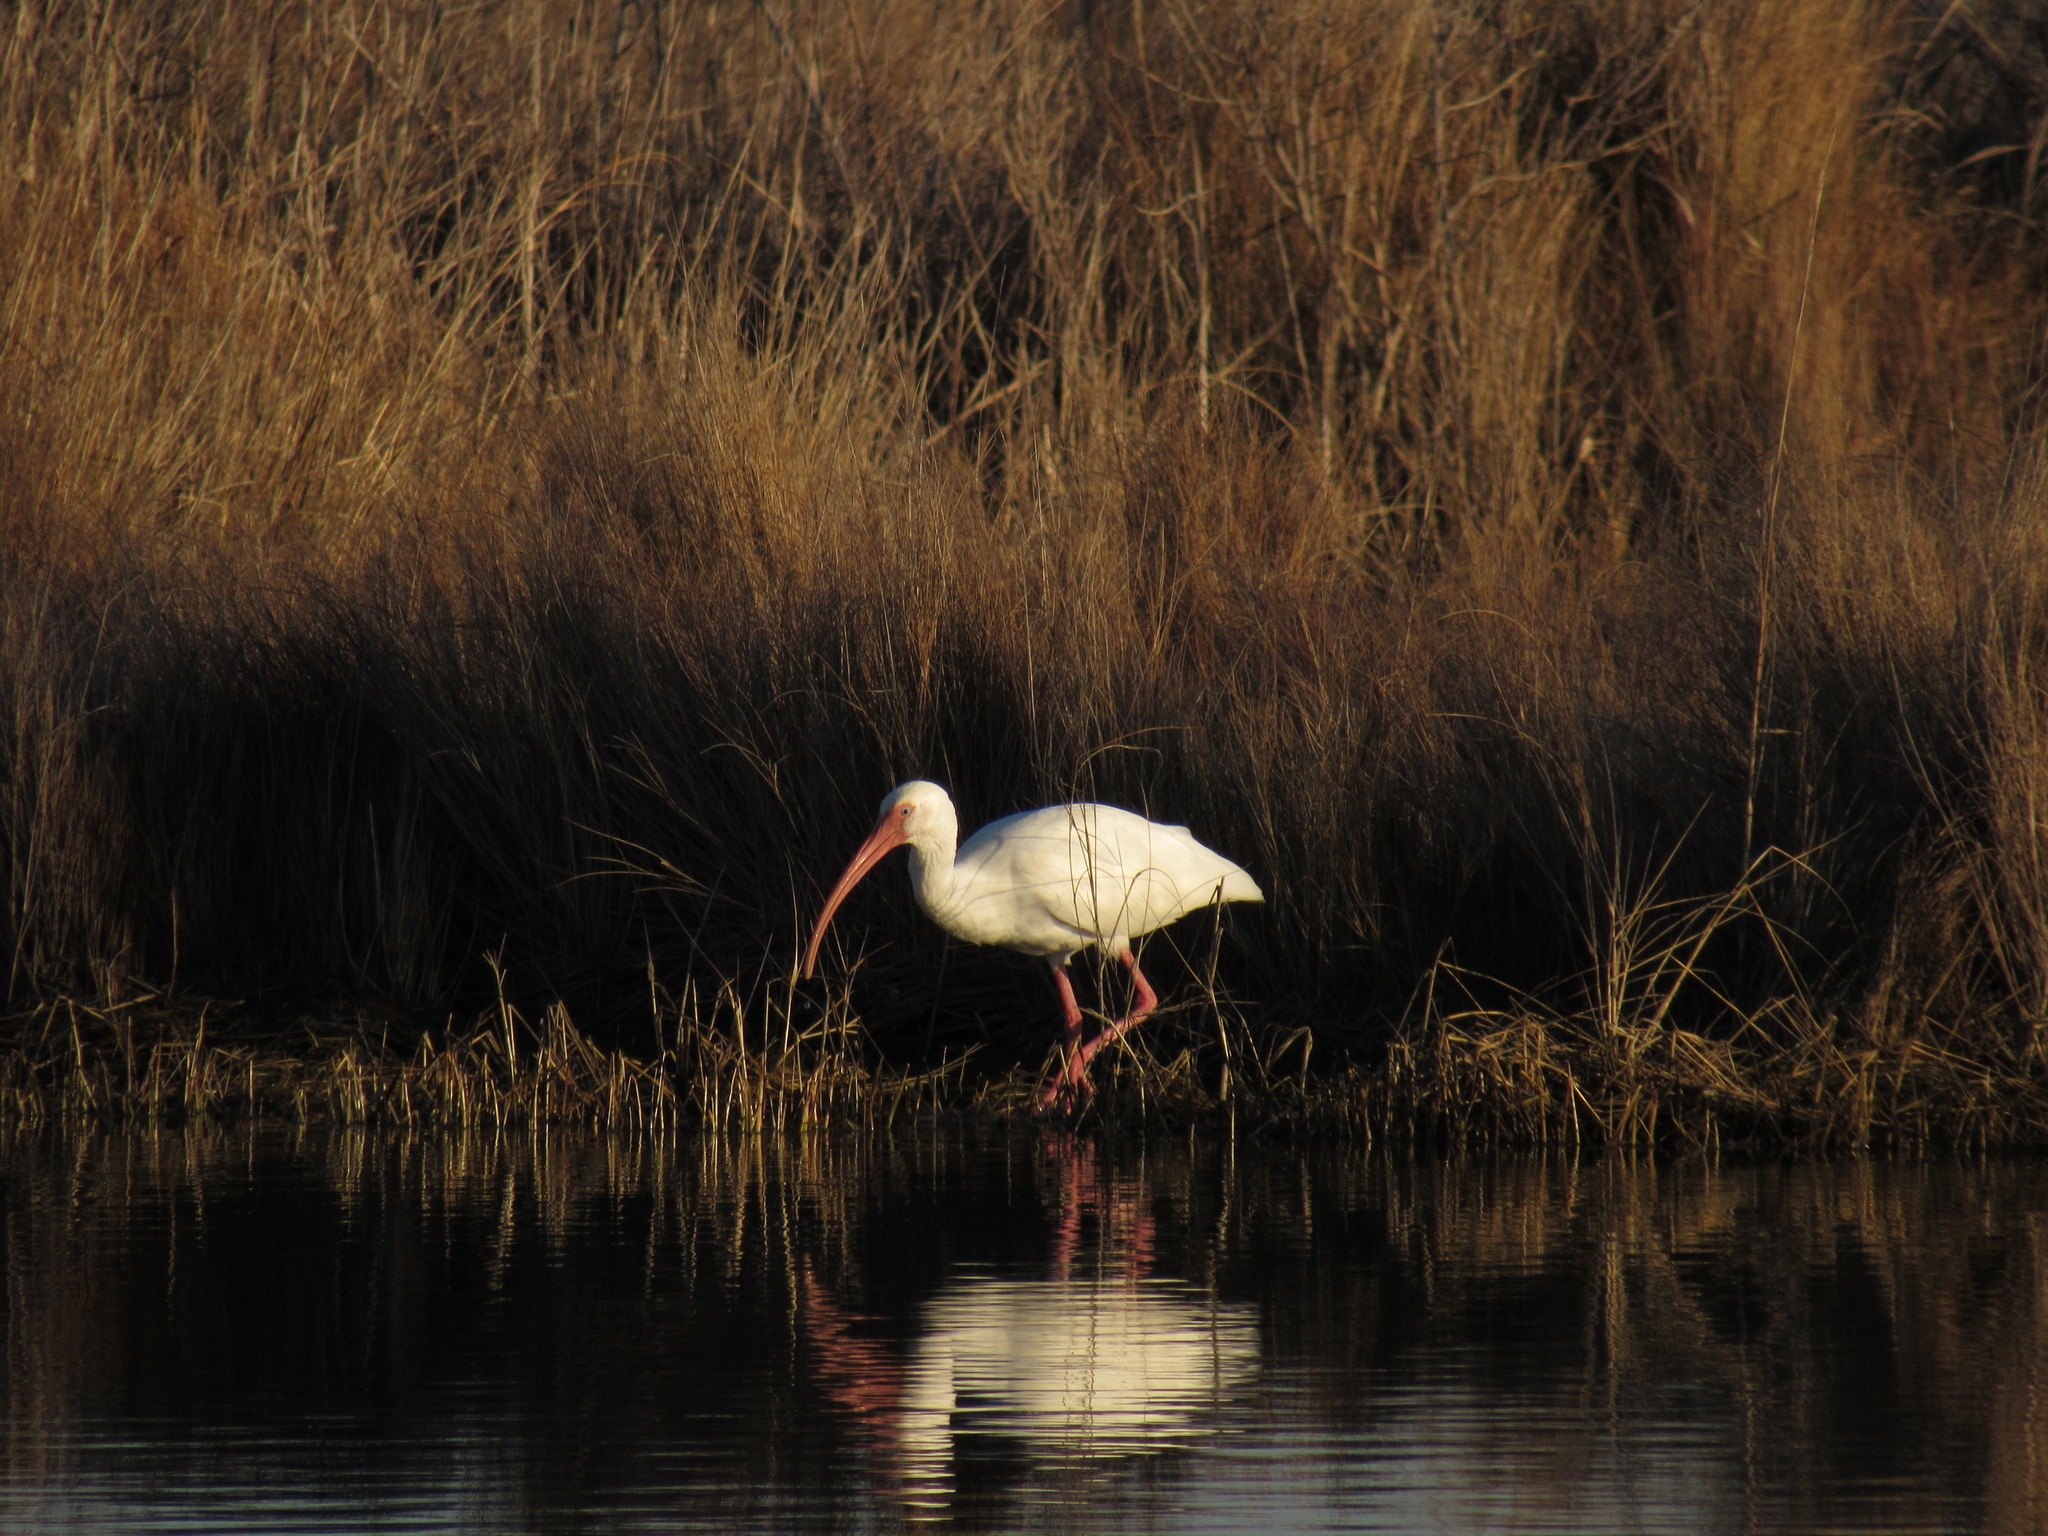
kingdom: Animalia
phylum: Chordata
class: Aves
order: Pelecaniformes
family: Threskiornithidae
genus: Eudocimus
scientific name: Eudocimus albus
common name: White ibis
